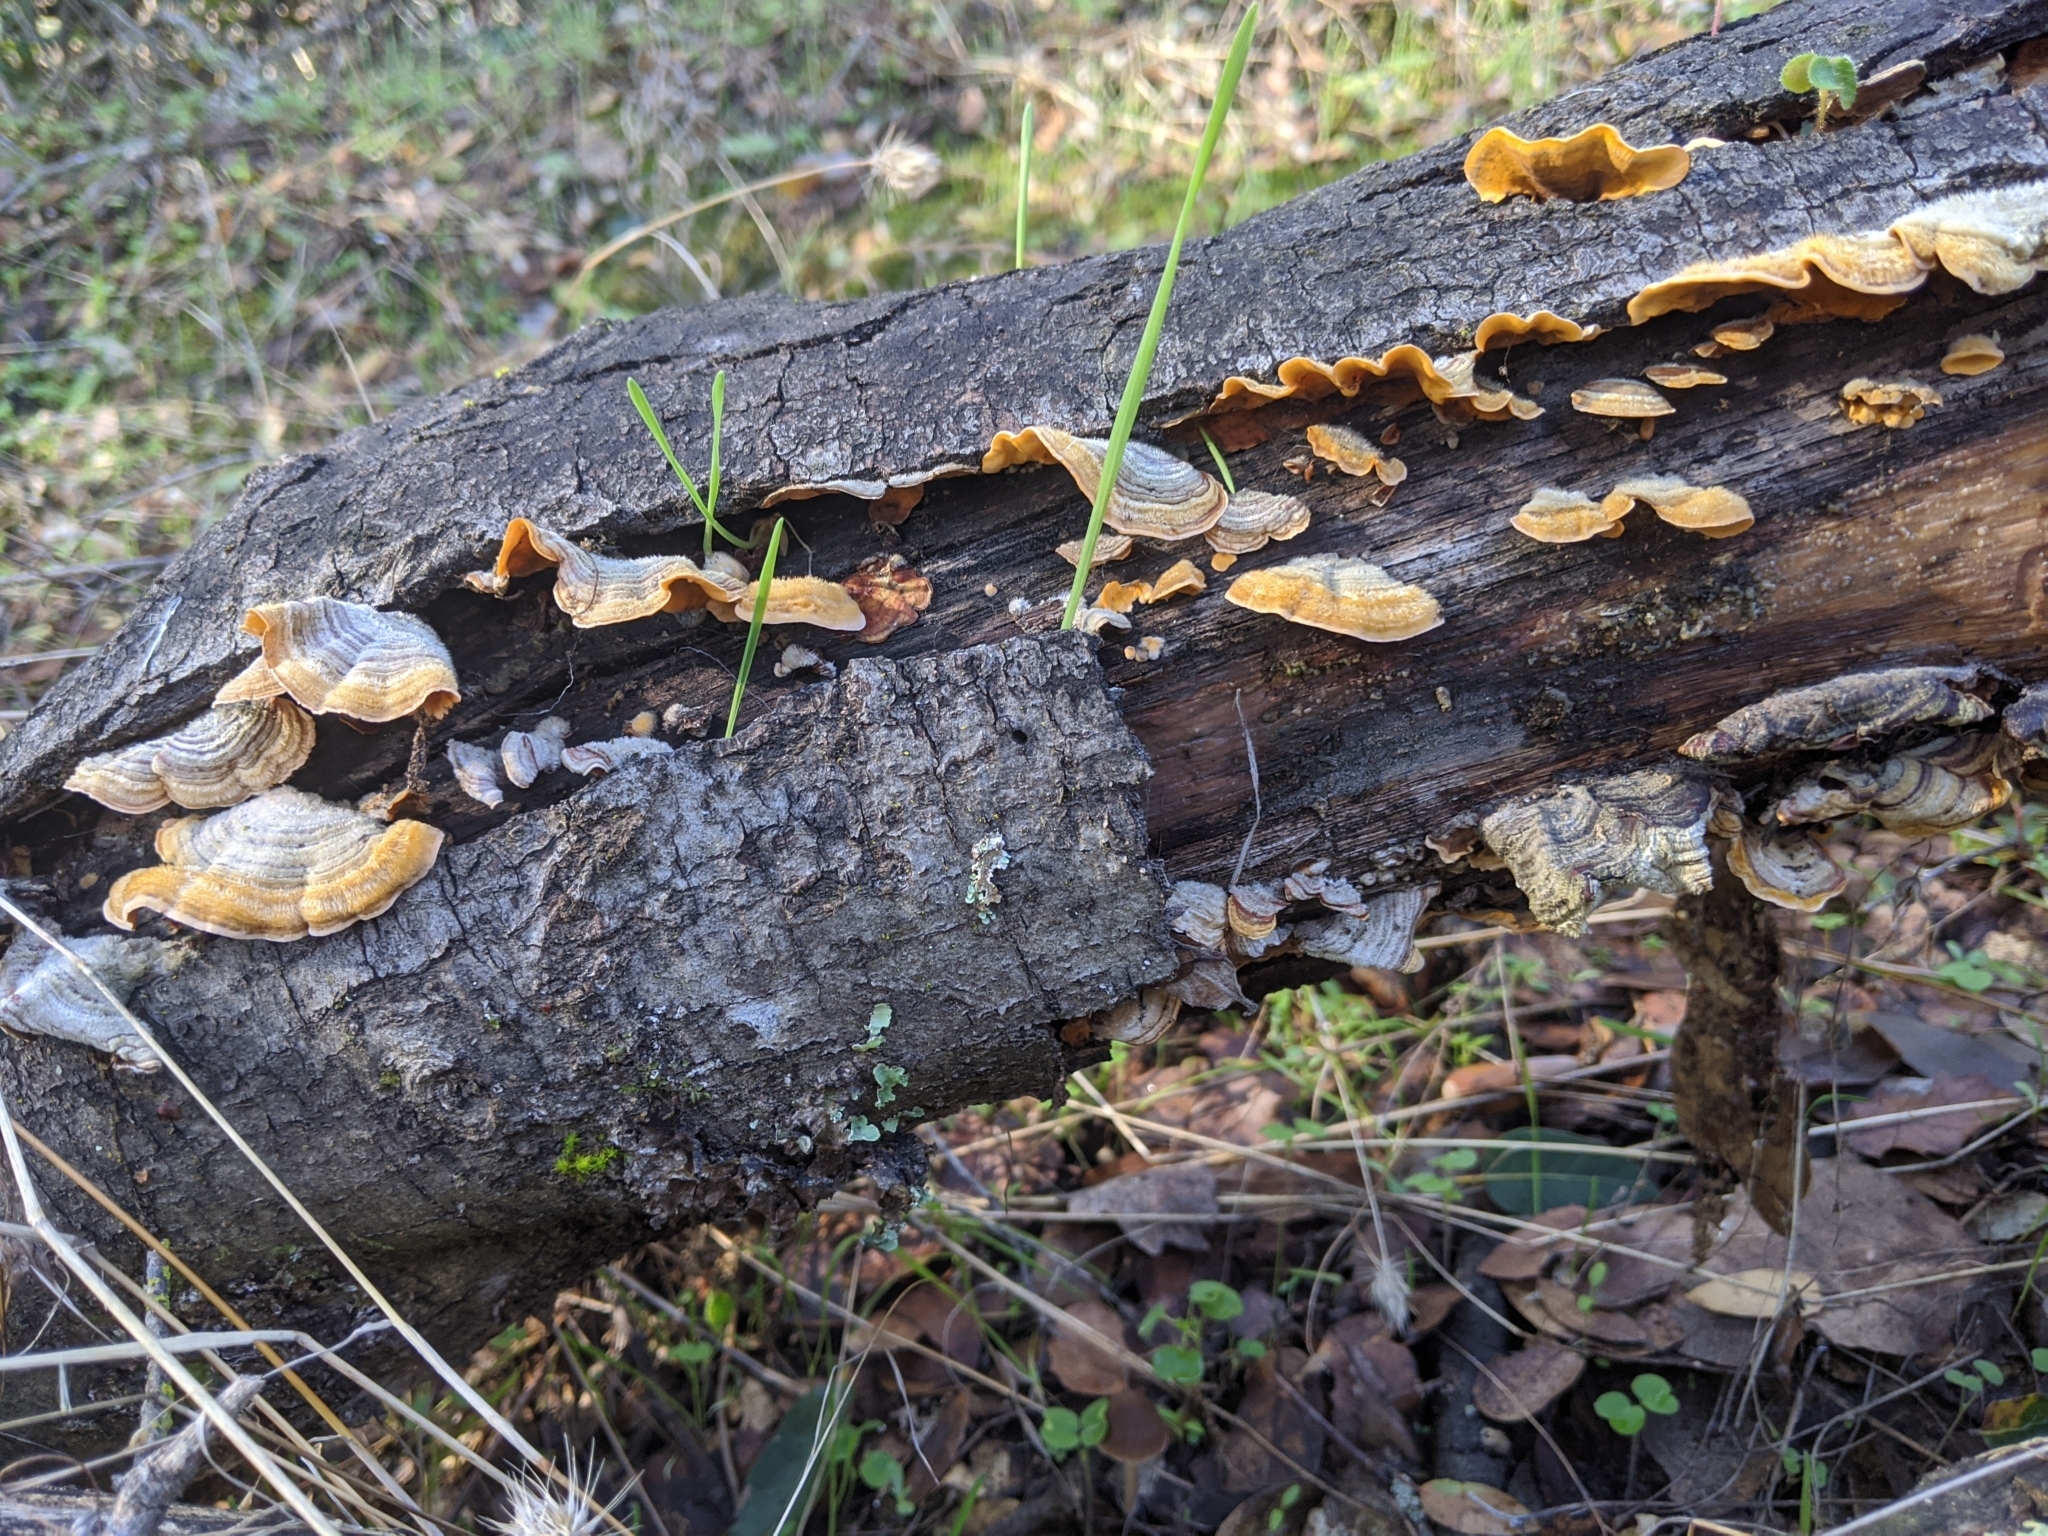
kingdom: Fungi
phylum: Basidiomycota
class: Agaricomycetes
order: Russulales
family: Stereaceae
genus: Stereum
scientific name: Stereum hirsutum
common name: Hairy curtain crust
